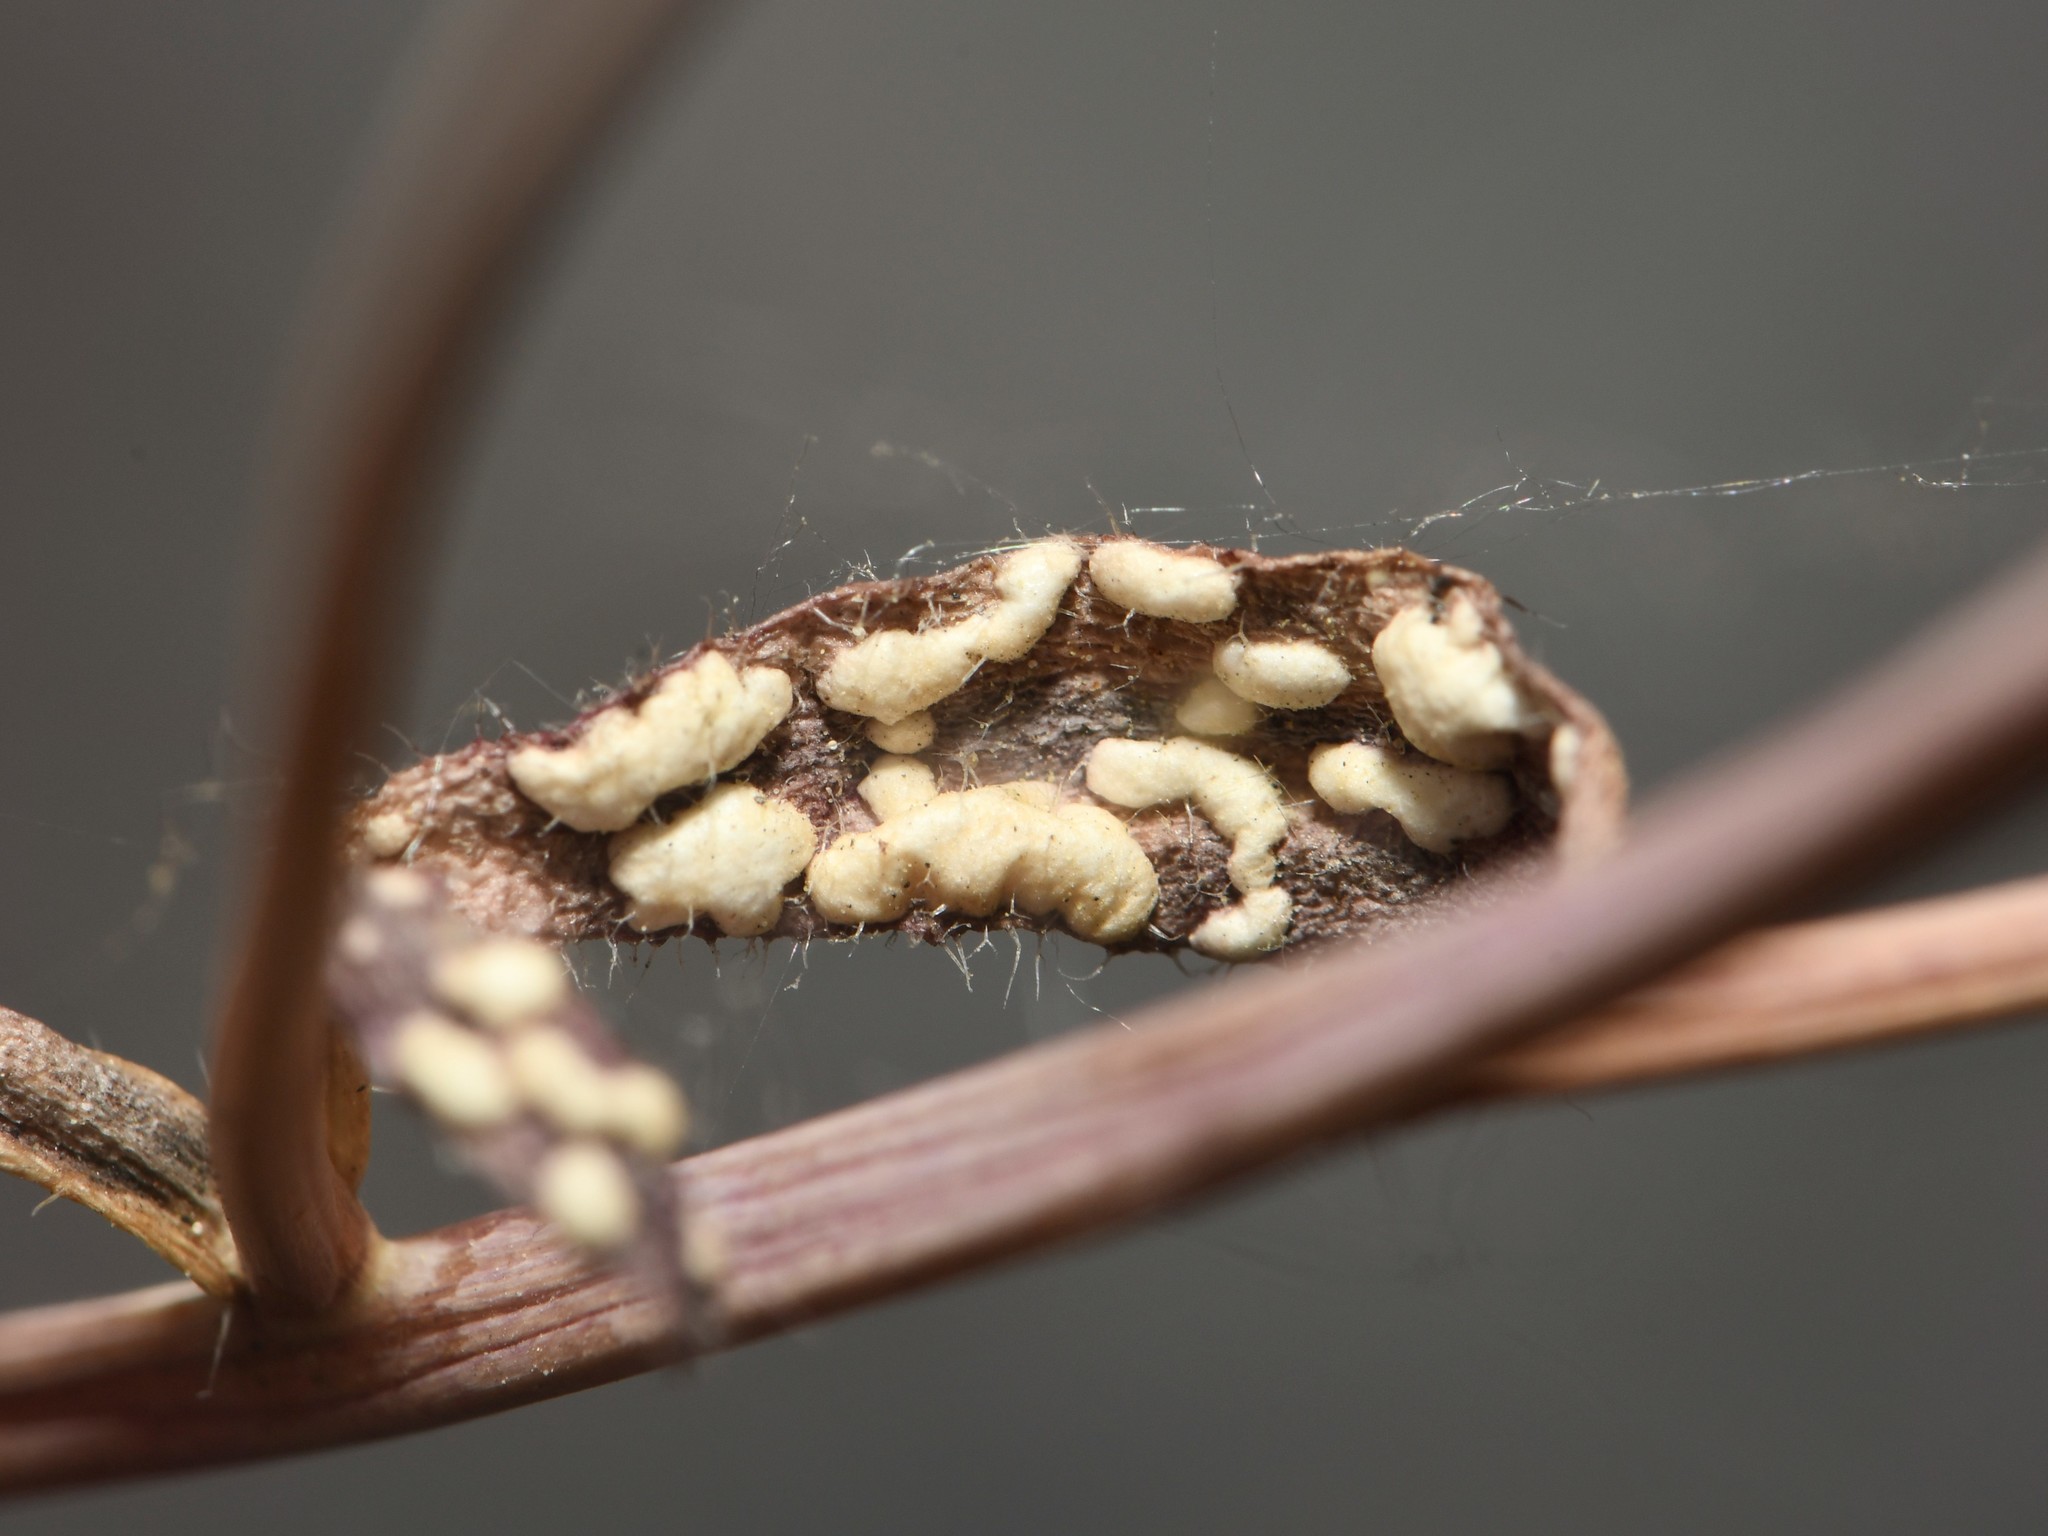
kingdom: Chromista
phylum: Oomycota
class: Peronosporea
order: Albuginales
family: Albuginaceae
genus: Albugo
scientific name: Albugo candida
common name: Crucifer white blister
